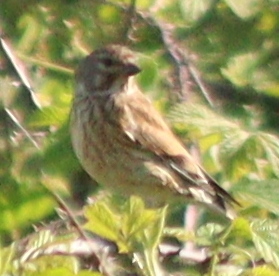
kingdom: Animalia
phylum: Chordata
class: Aves
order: Passeriformes
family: Fringillidae
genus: Linaria
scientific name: Linaria cannabina
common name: Common linnet
